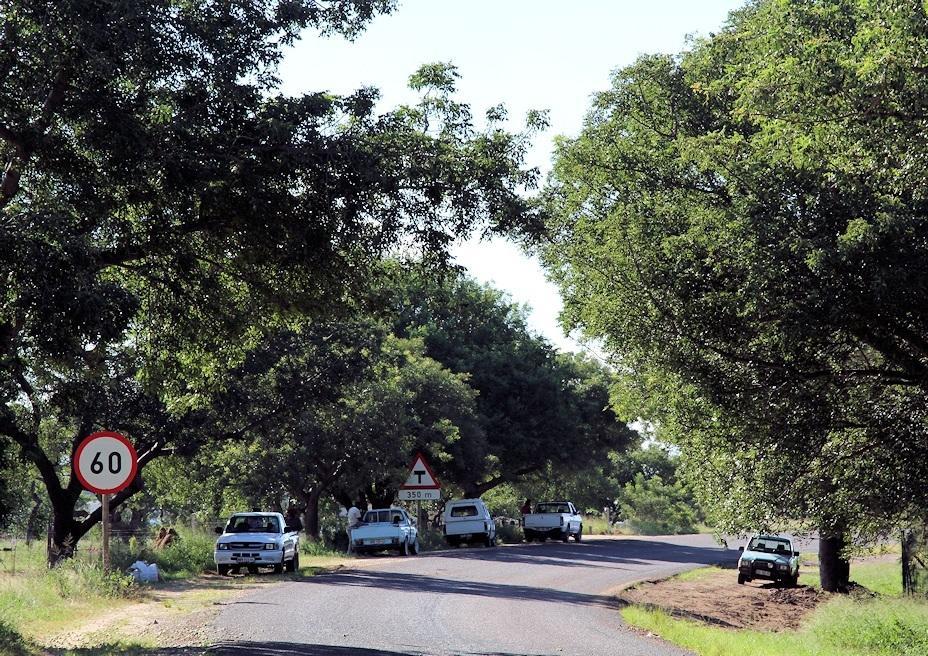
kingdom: Plantae
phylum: Tracheophyta
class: Magnoliopsida
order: Sapindales
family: Anacardiaceae
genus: Sclerocarya
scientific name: Sclerocarya birrea
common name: Marula
